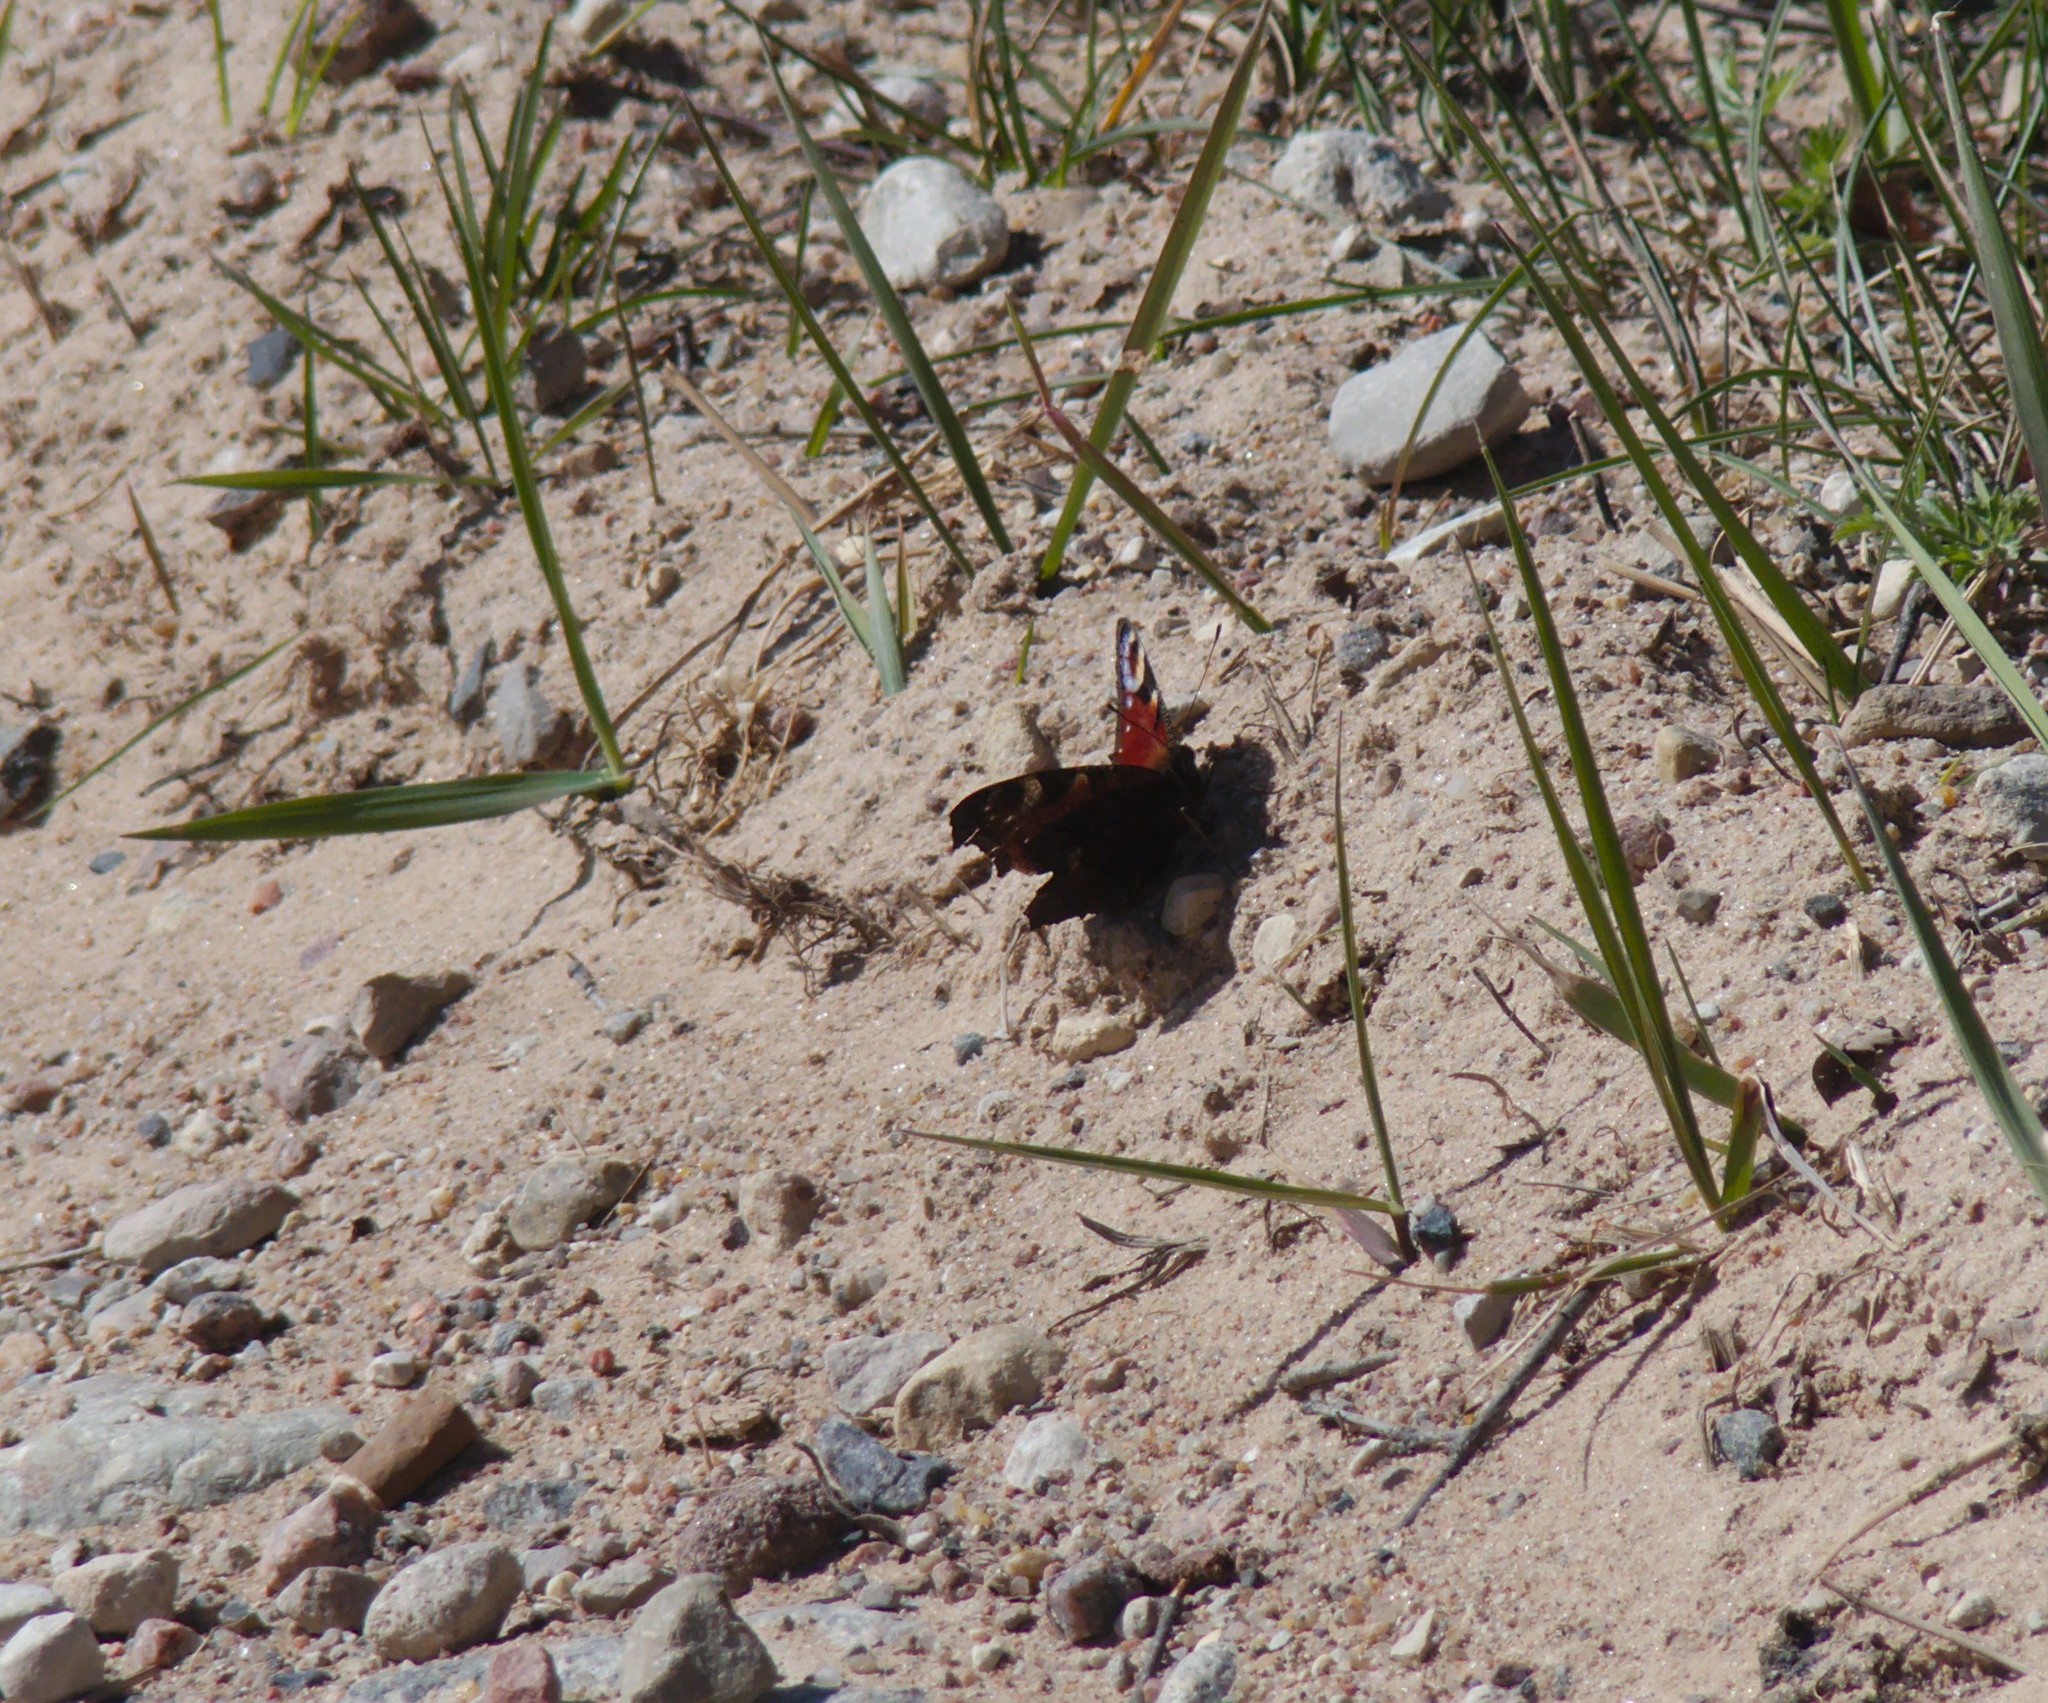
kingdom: Animalia
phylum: Arthropoda
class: Insecta
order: Lepidoptera
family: Nymphalidae
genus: Aglais
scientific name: Aglais io
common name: Peacock
